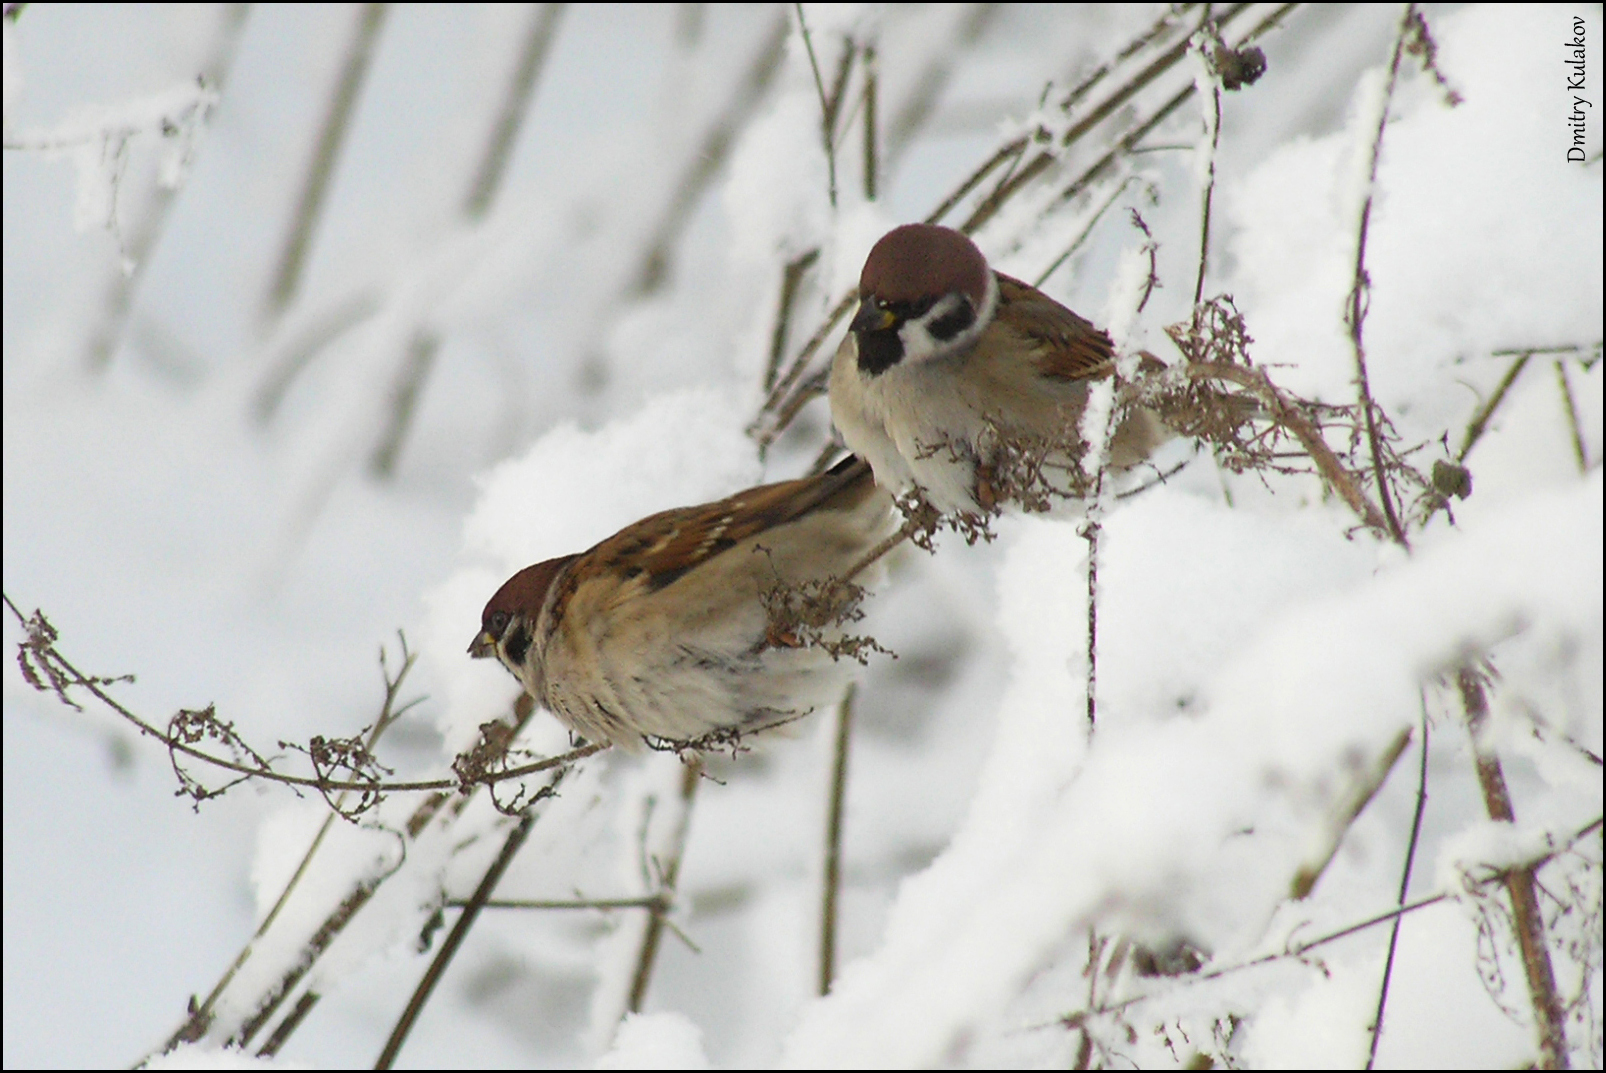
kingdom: Animalia
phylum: Chordata
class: Aves
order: Passeriformes
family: Passeridae
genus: Passer
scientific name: Passer montanus
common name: Eurasian tree sparrow
